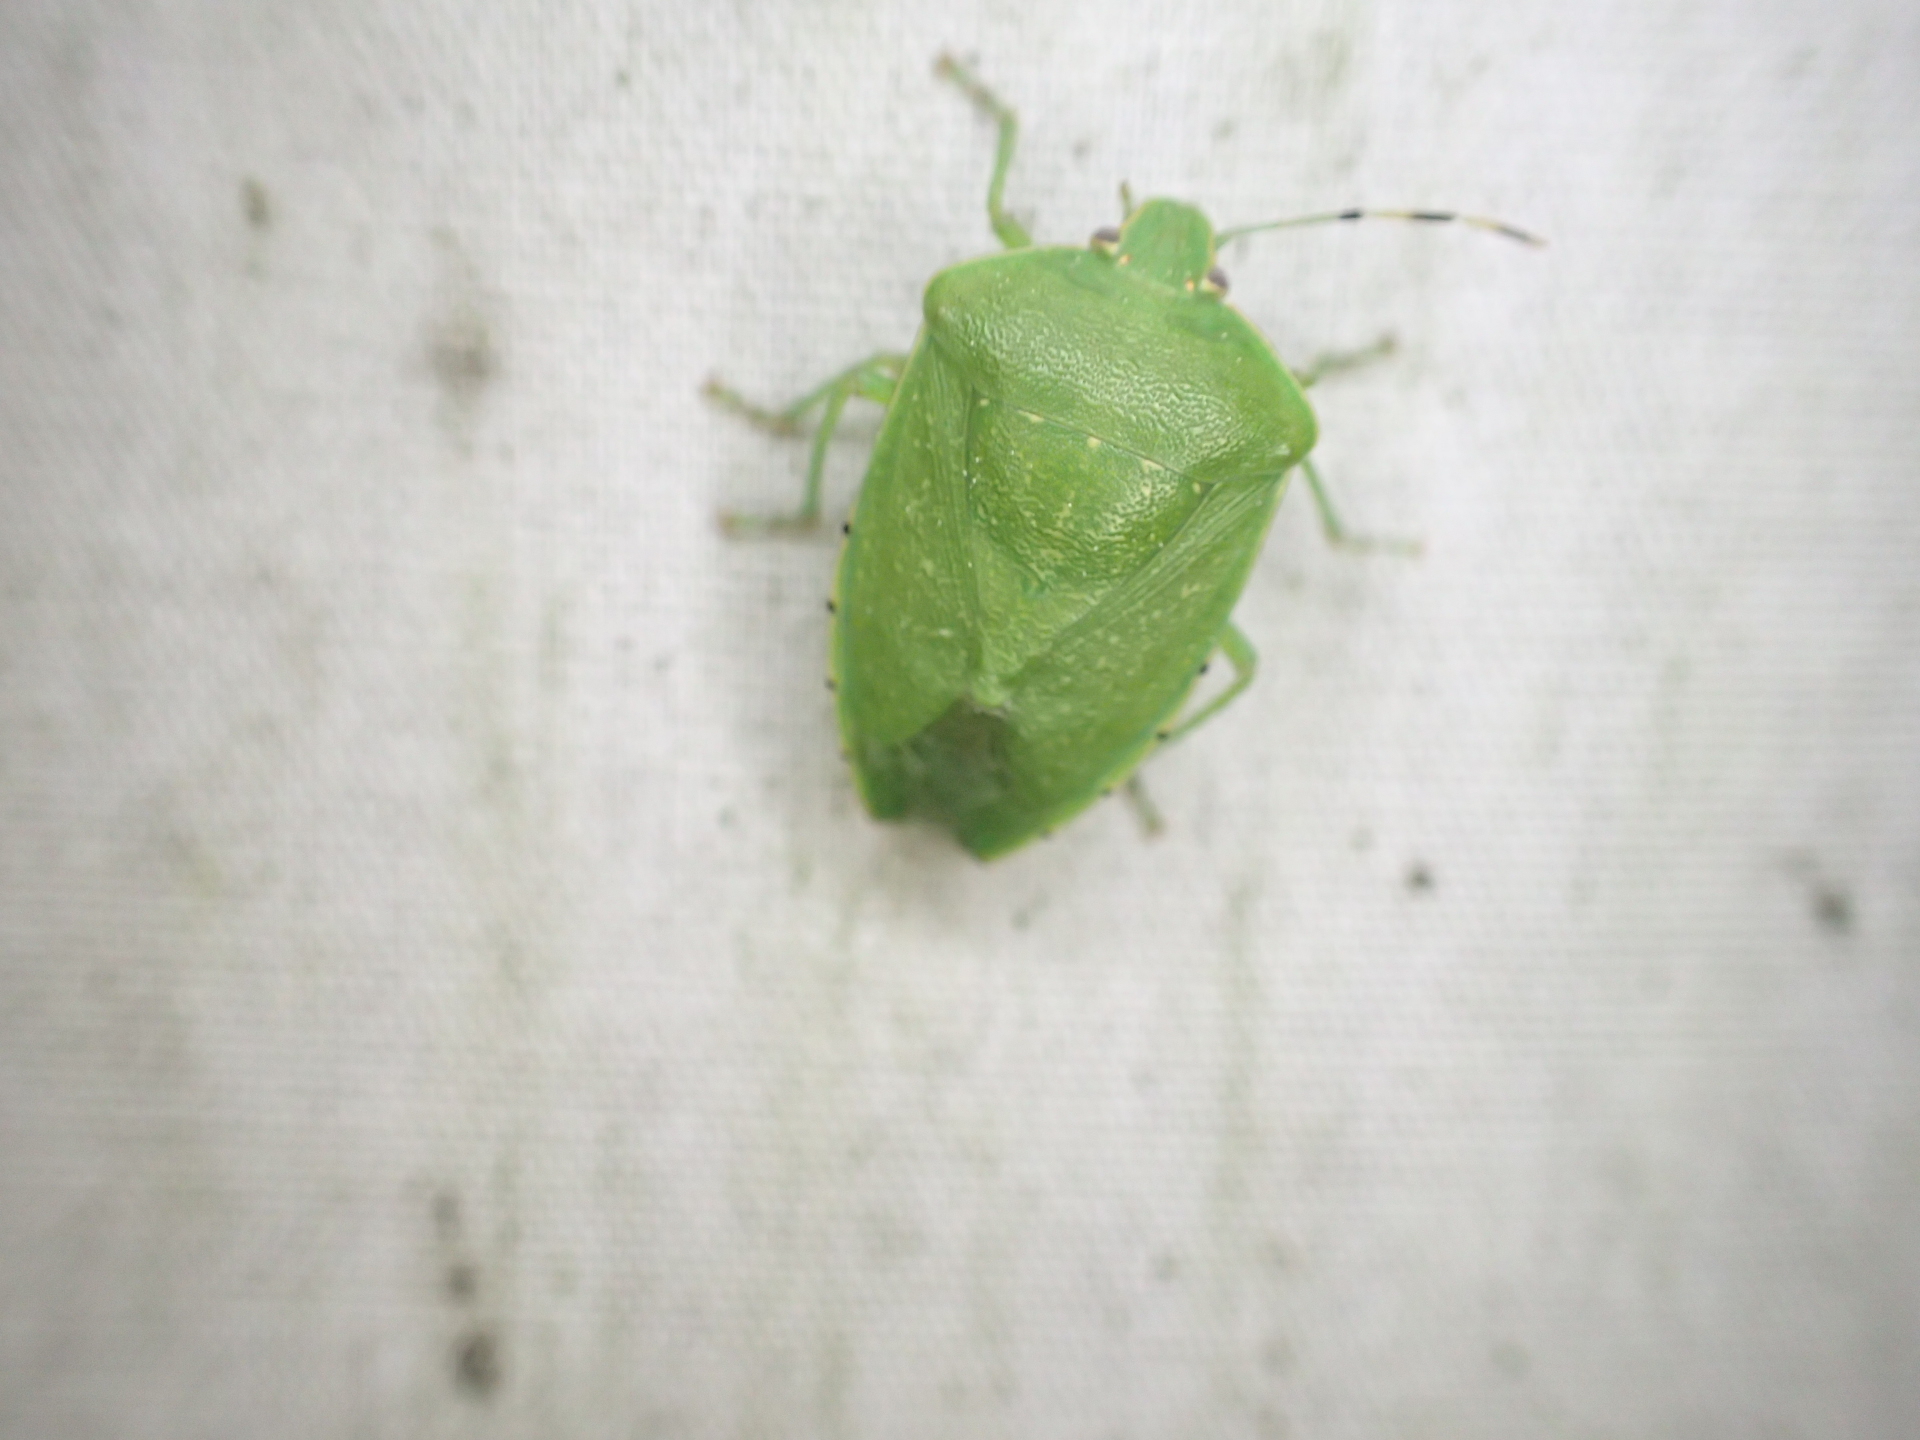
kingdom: Animalia
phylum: Arthropoda
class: Insecta
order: Hemiptera
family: Pentatomidae
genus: Chinavia
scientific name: Chinavia hilaris
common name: Green stink bug
